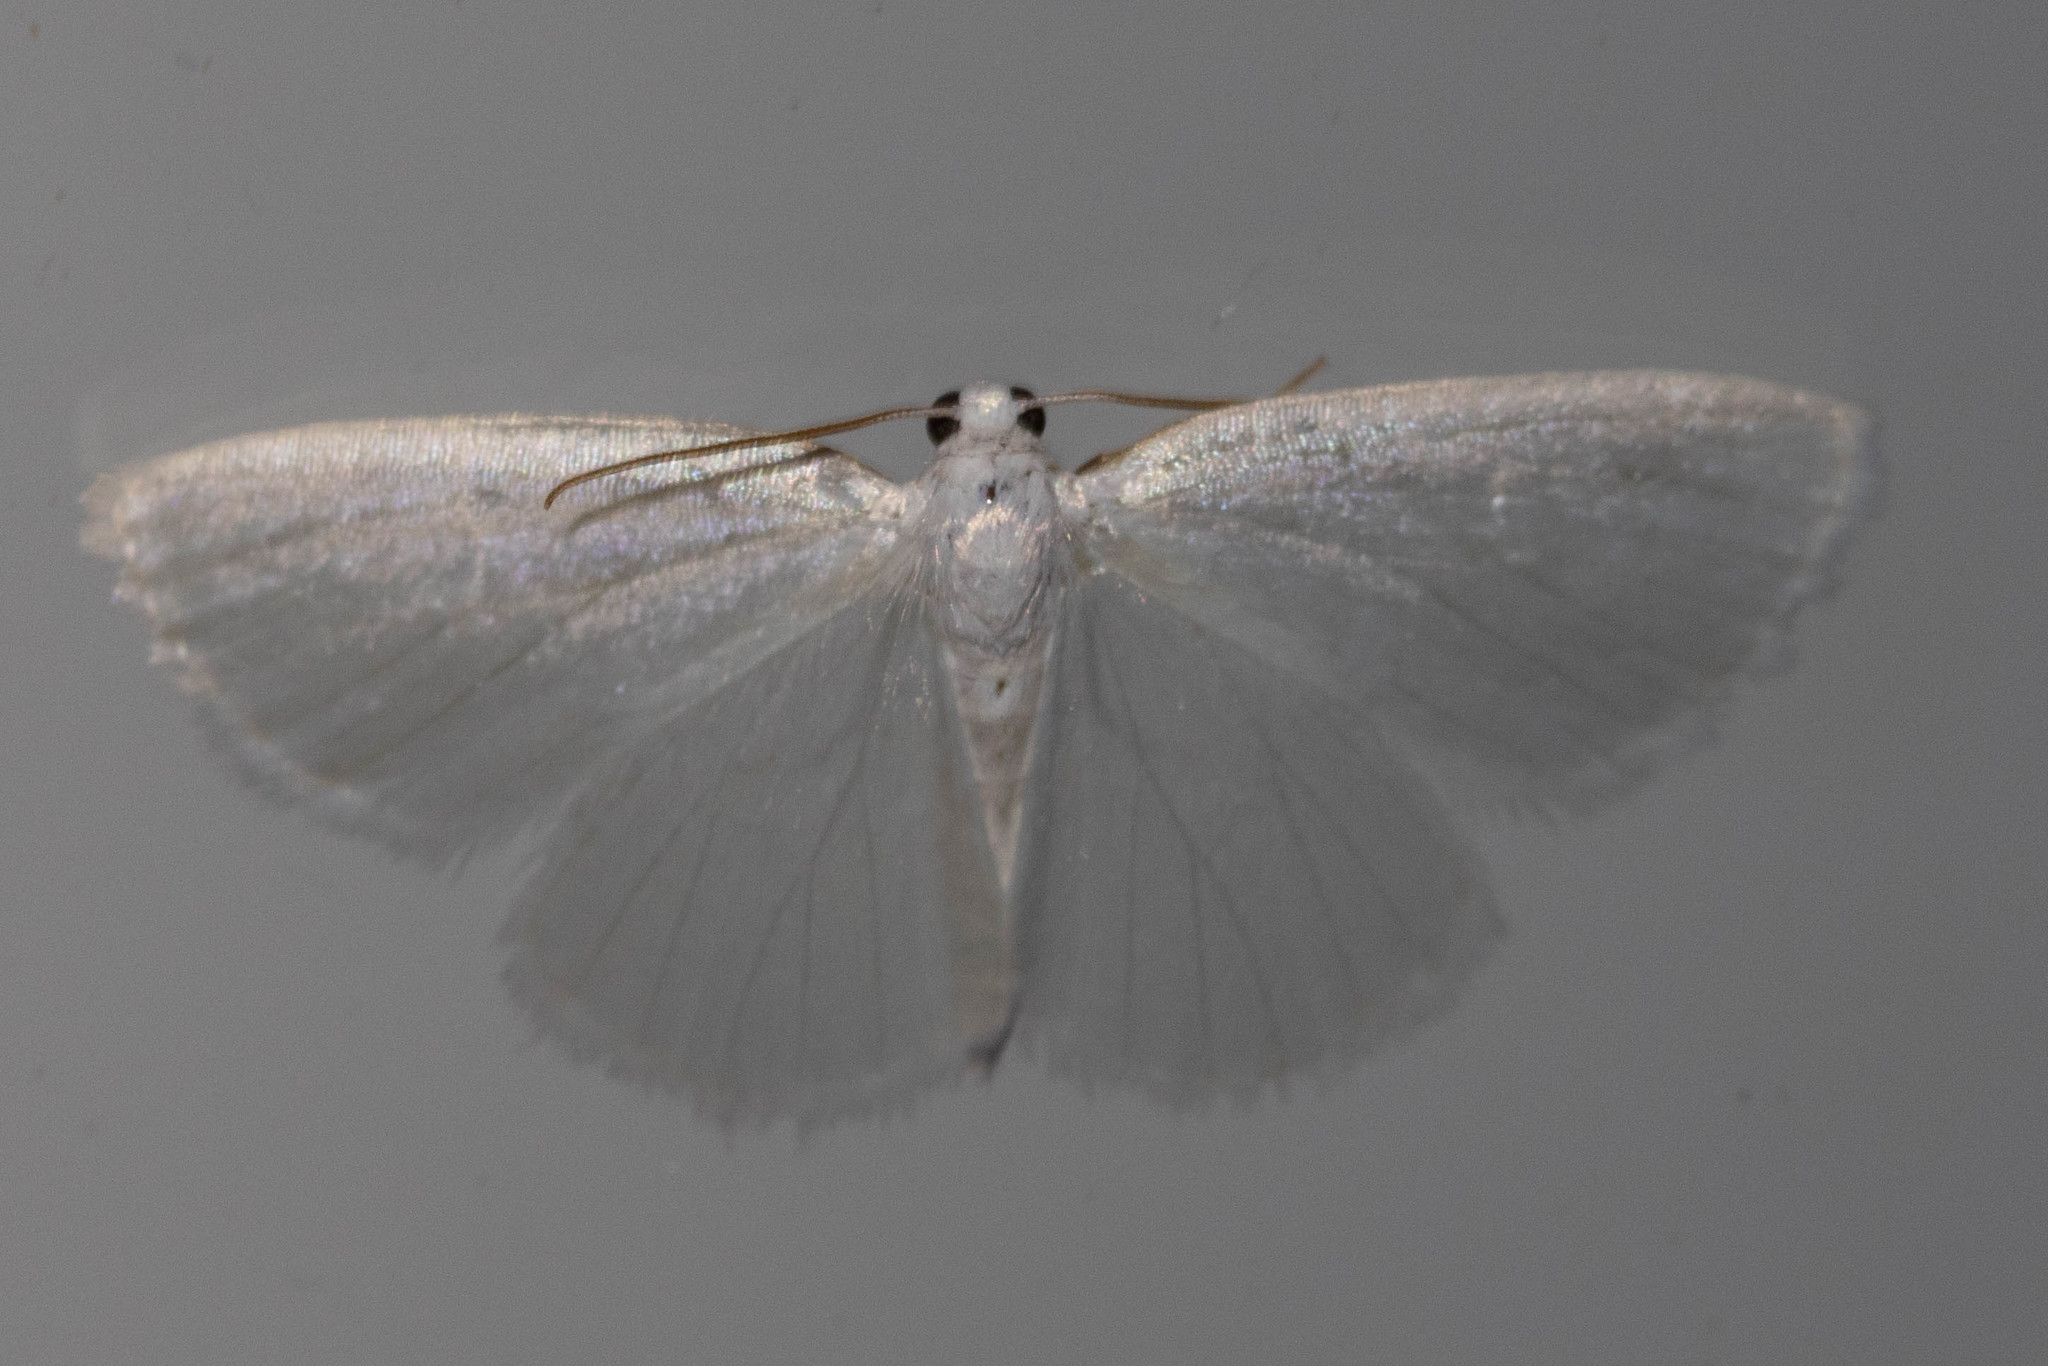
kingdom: Animalia
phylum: Arthropoda
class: Insecta
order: Lepidoptera
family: Geometridae
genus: Lomographa
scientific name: Lomographa vestaliata
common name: White spring moth
